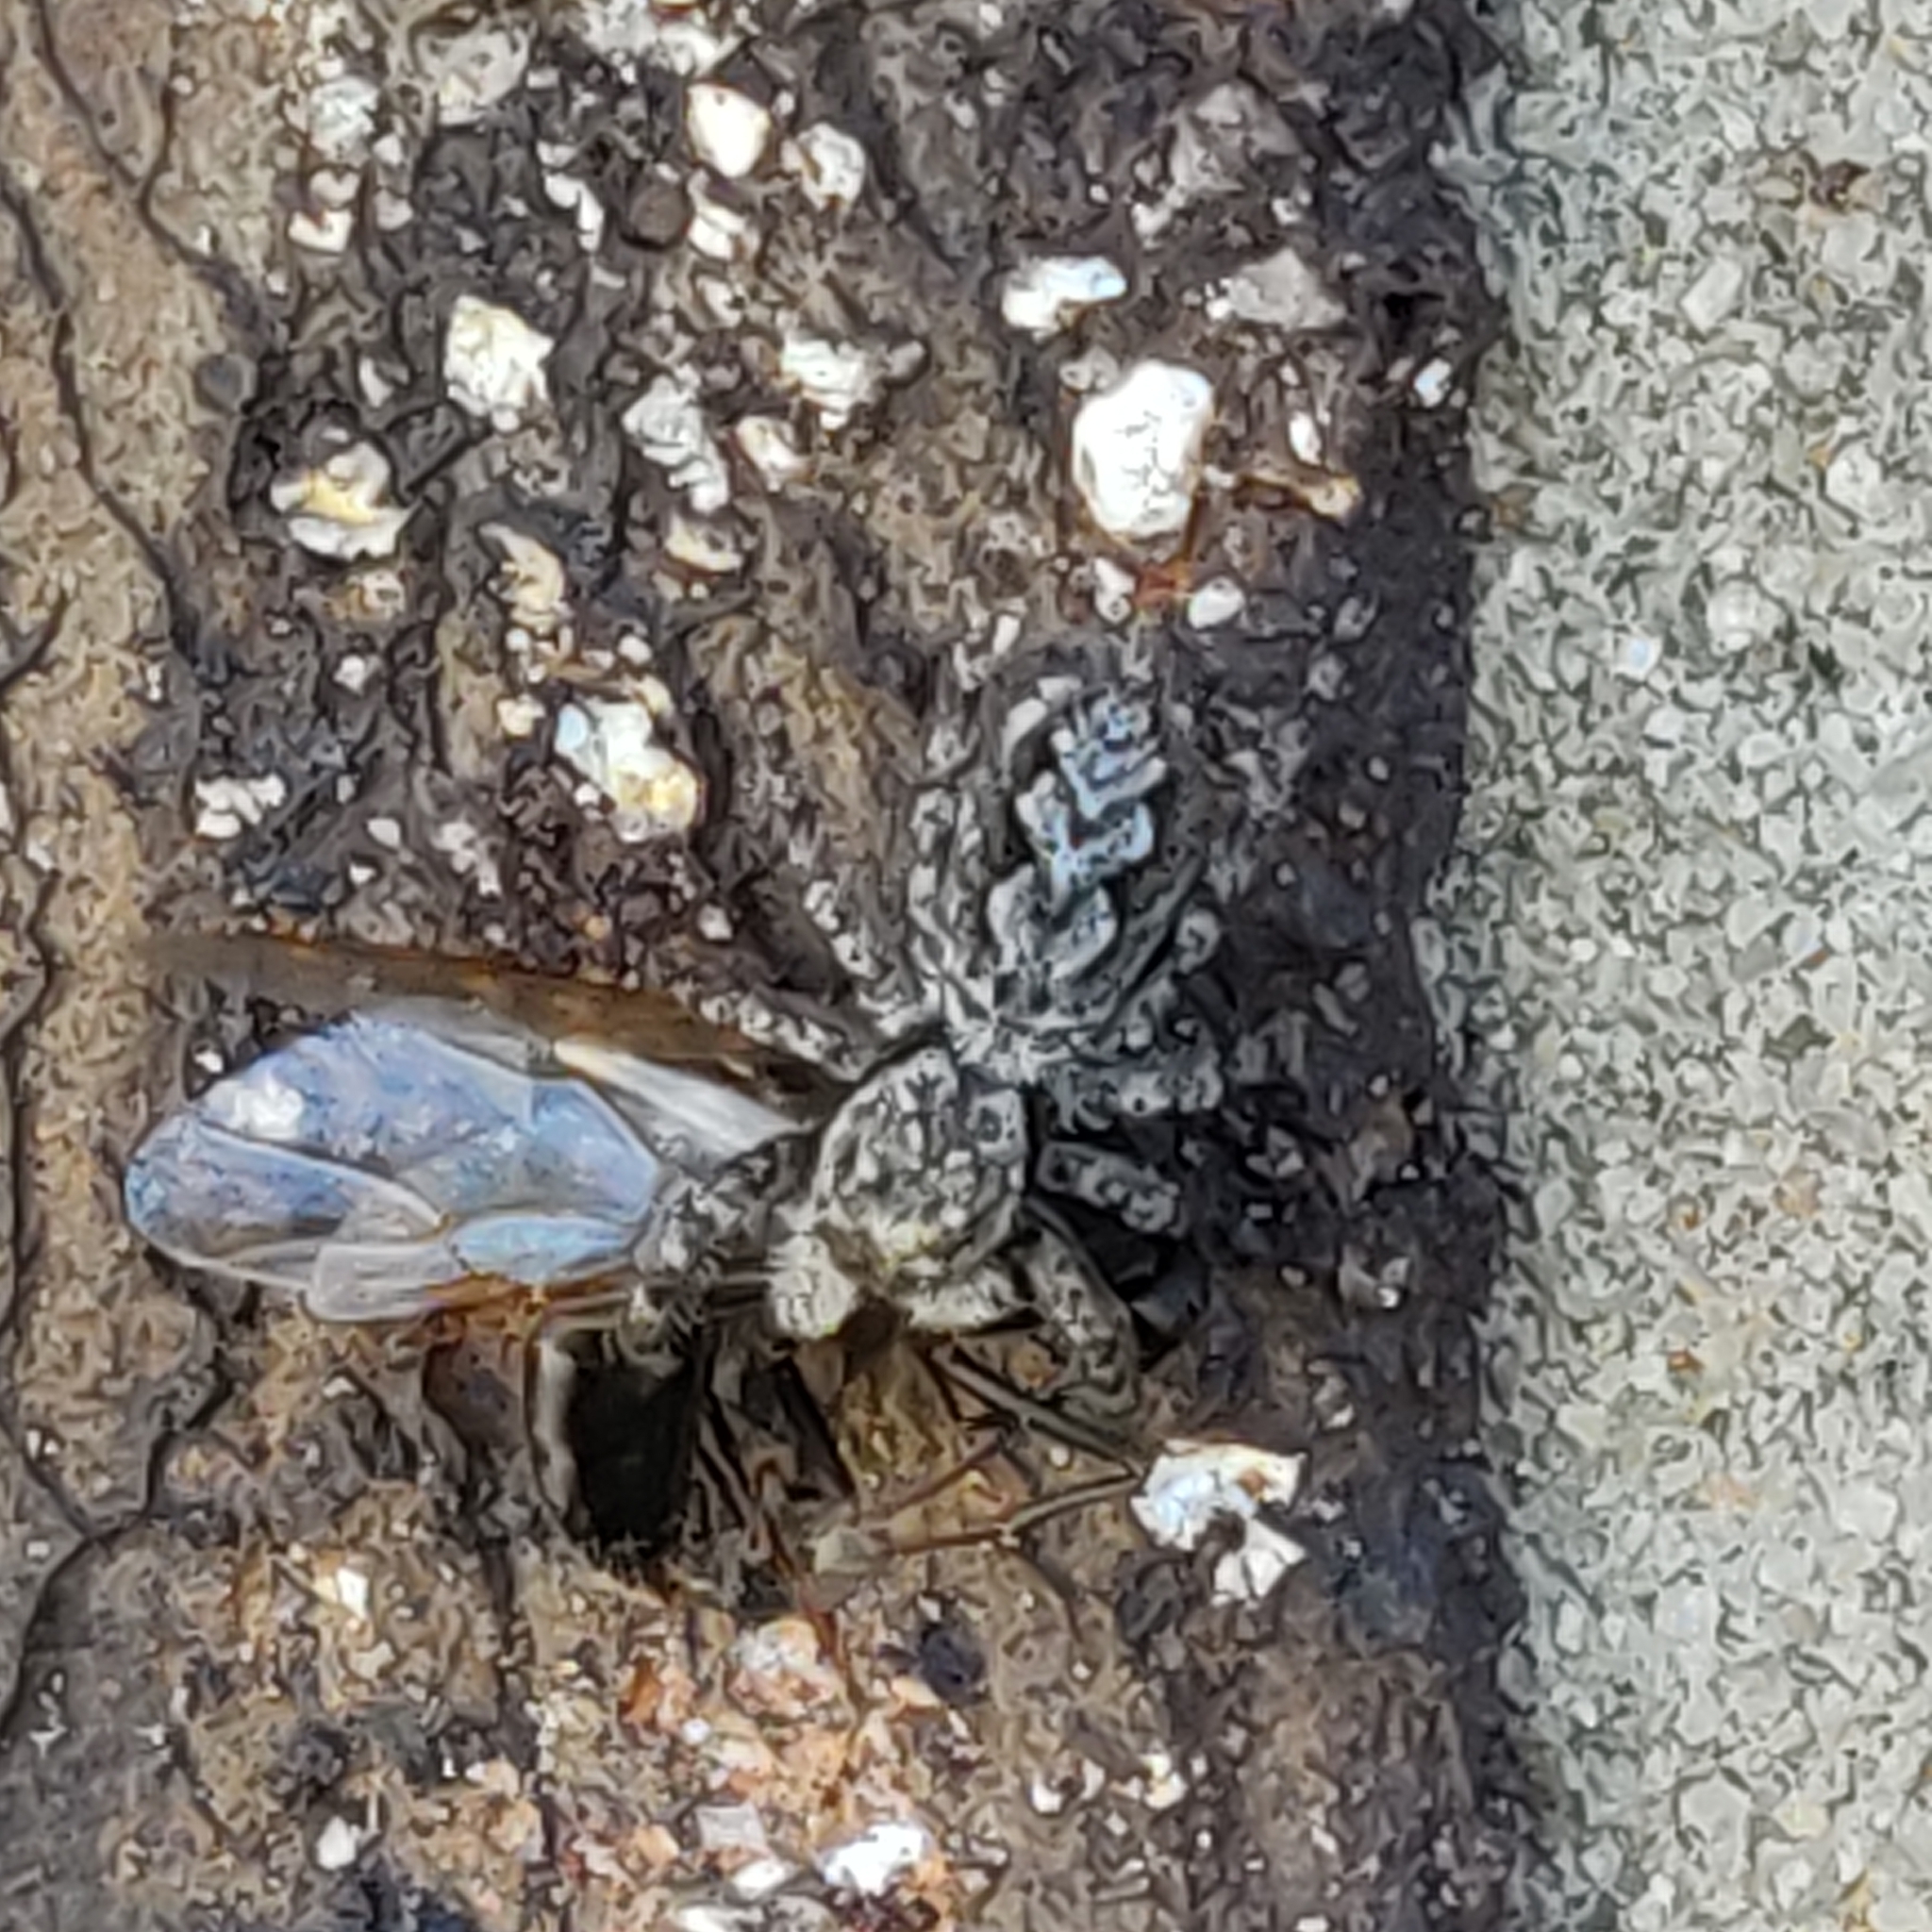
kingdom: Animalia
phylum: Arthropoda
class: Arachnida
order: Araneae
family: Salticidae
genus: Platycryptus
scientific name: Platycryptus undatus
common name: Tan jumping spider
